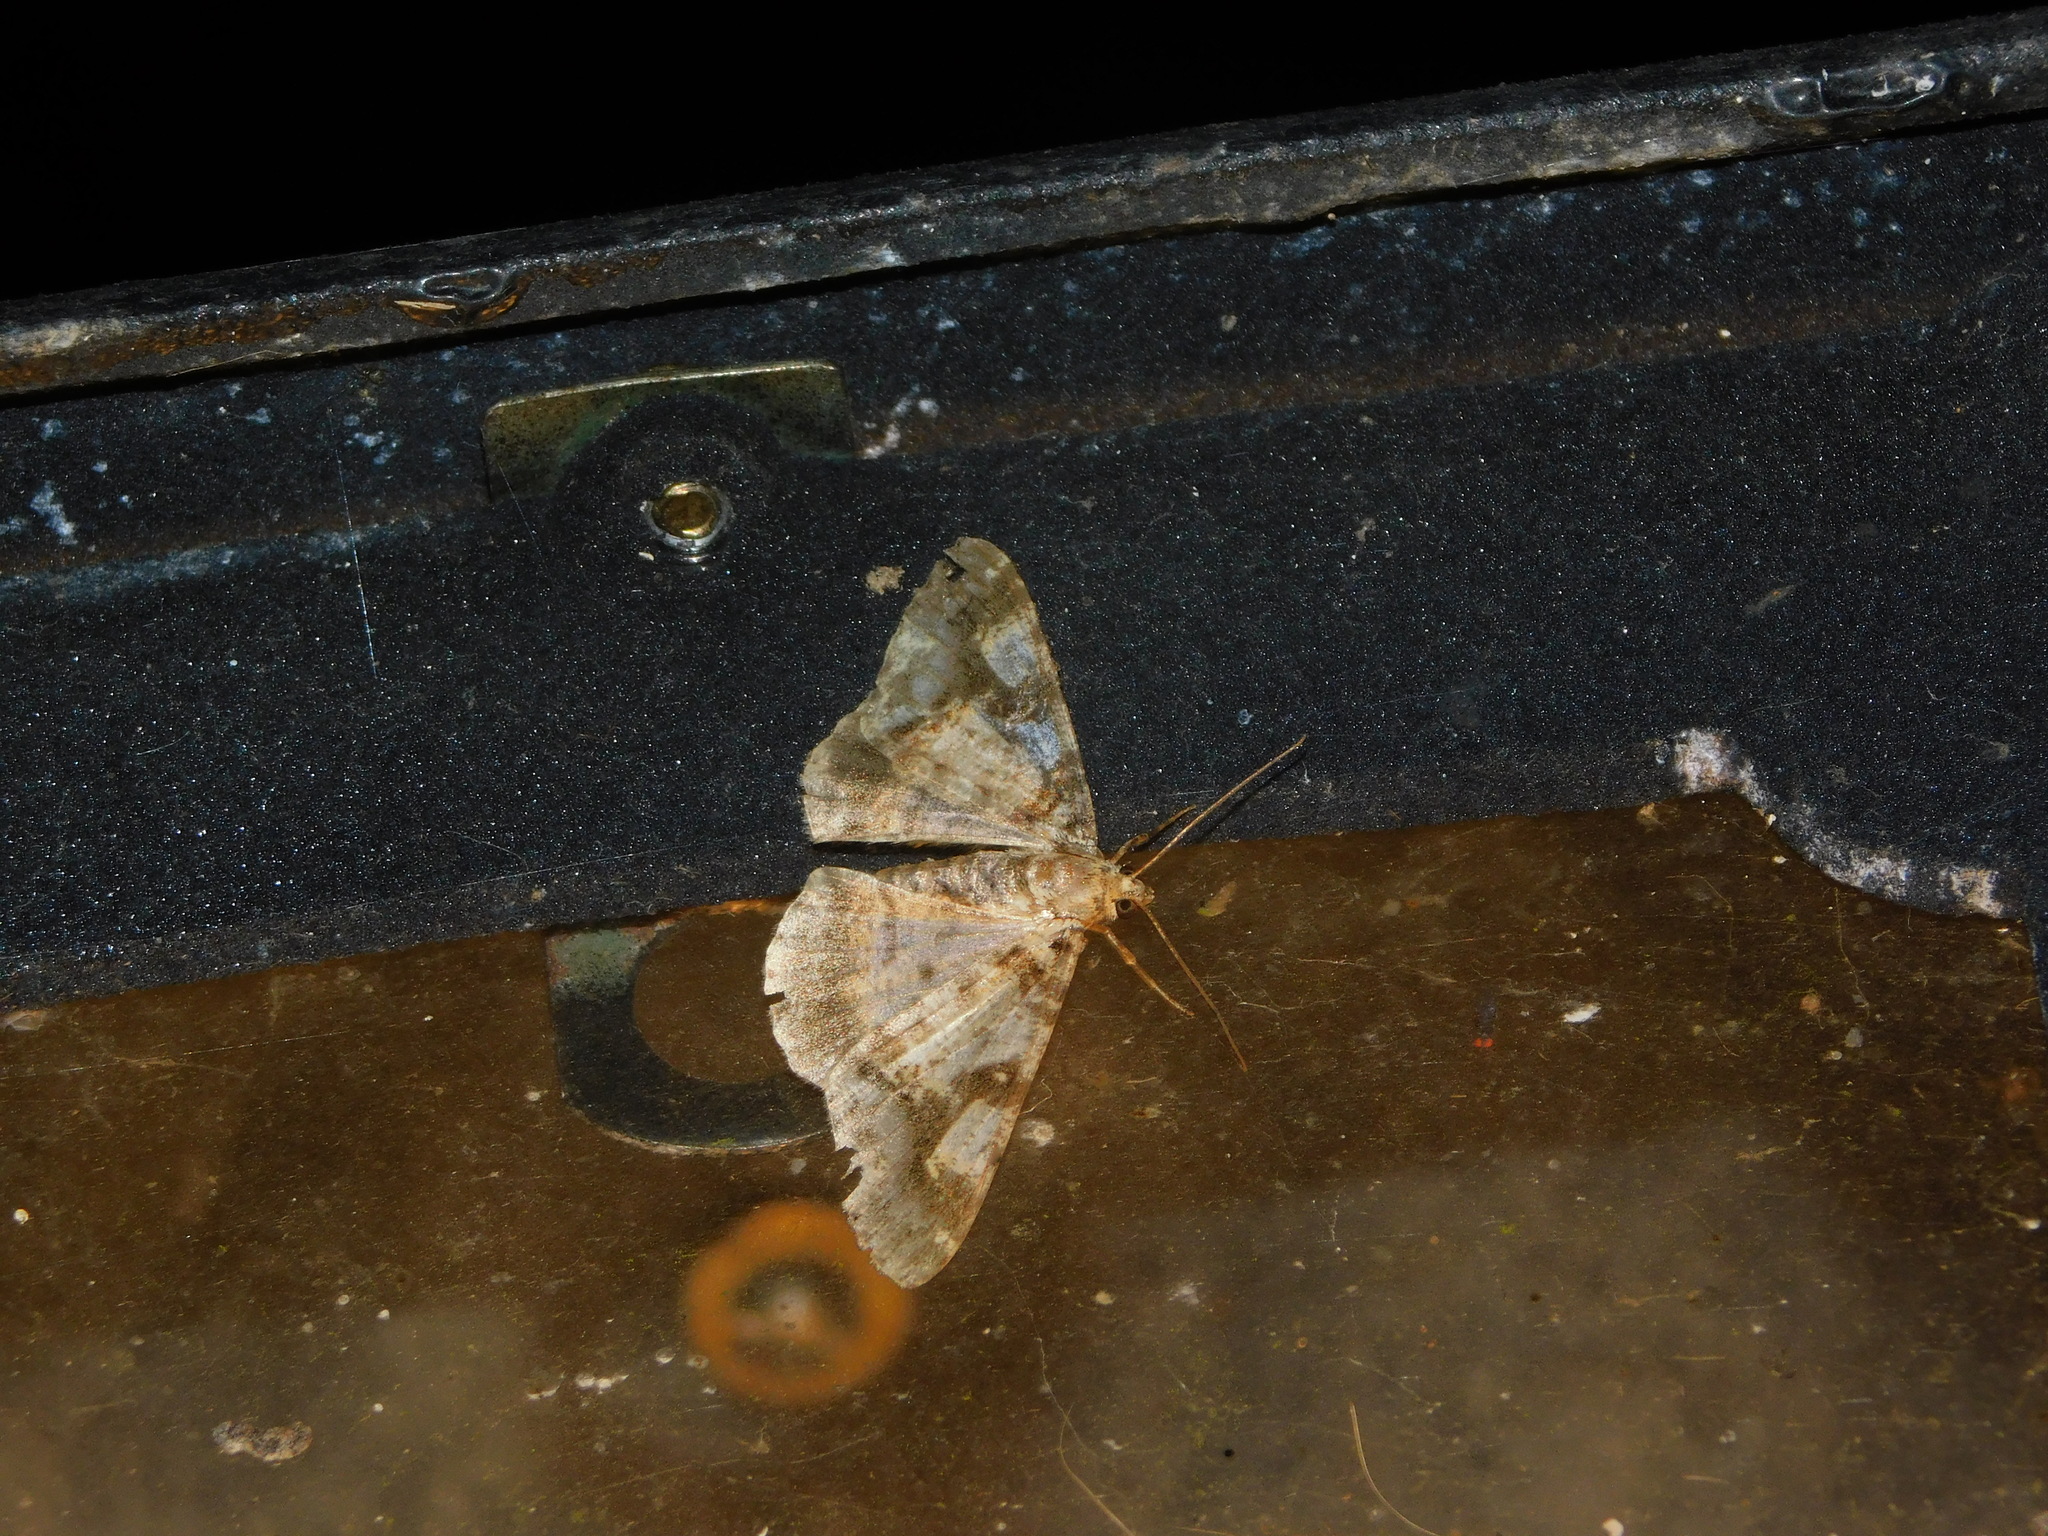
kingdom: Animalia
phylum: Arthropoda
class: Insecta
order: Lepidoptera
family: Geometridae
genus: Gasterocome
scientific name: Gasterocome pannosaria
